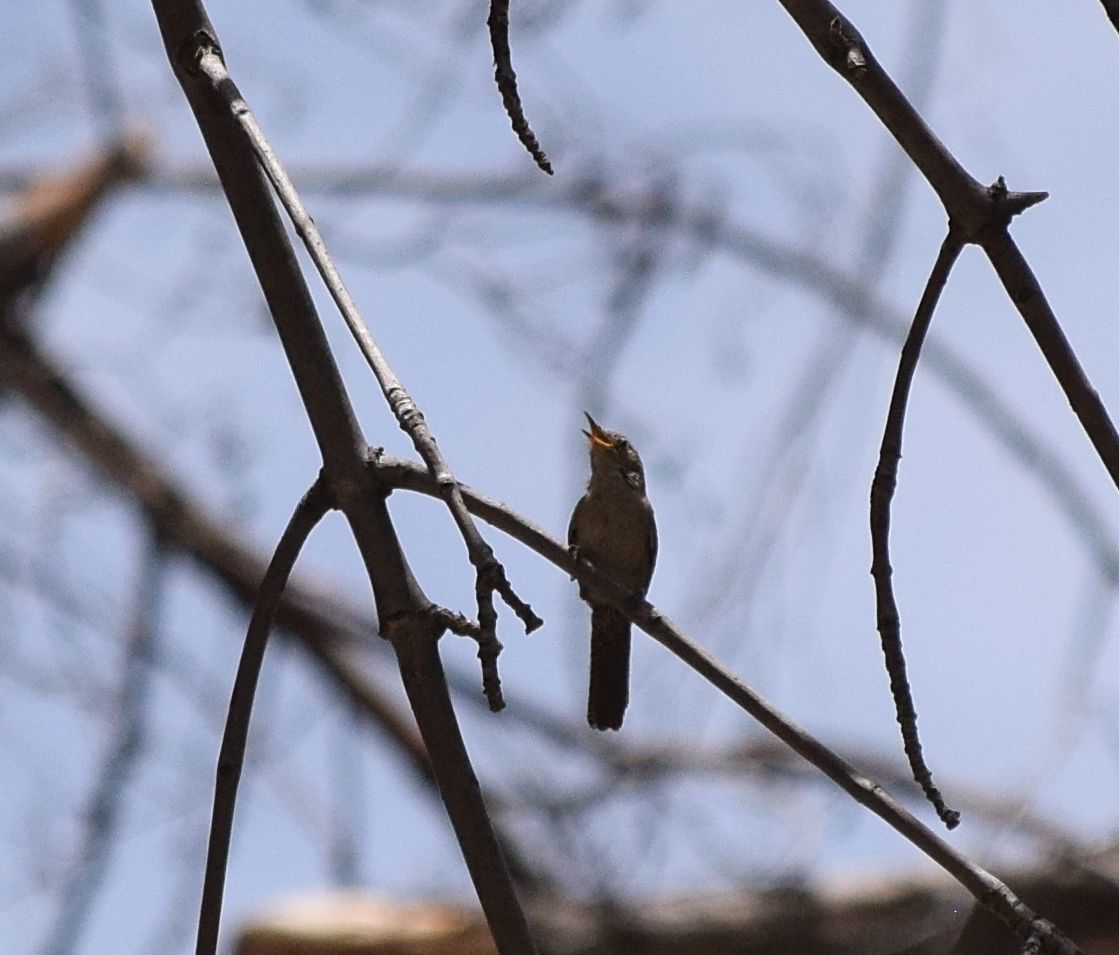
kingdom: Animalia
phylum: Chordata
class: Aves
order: Passeriformes
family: Troglodytidae
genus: Troglodytes
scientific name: Troglodytes aedon
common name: House wren
